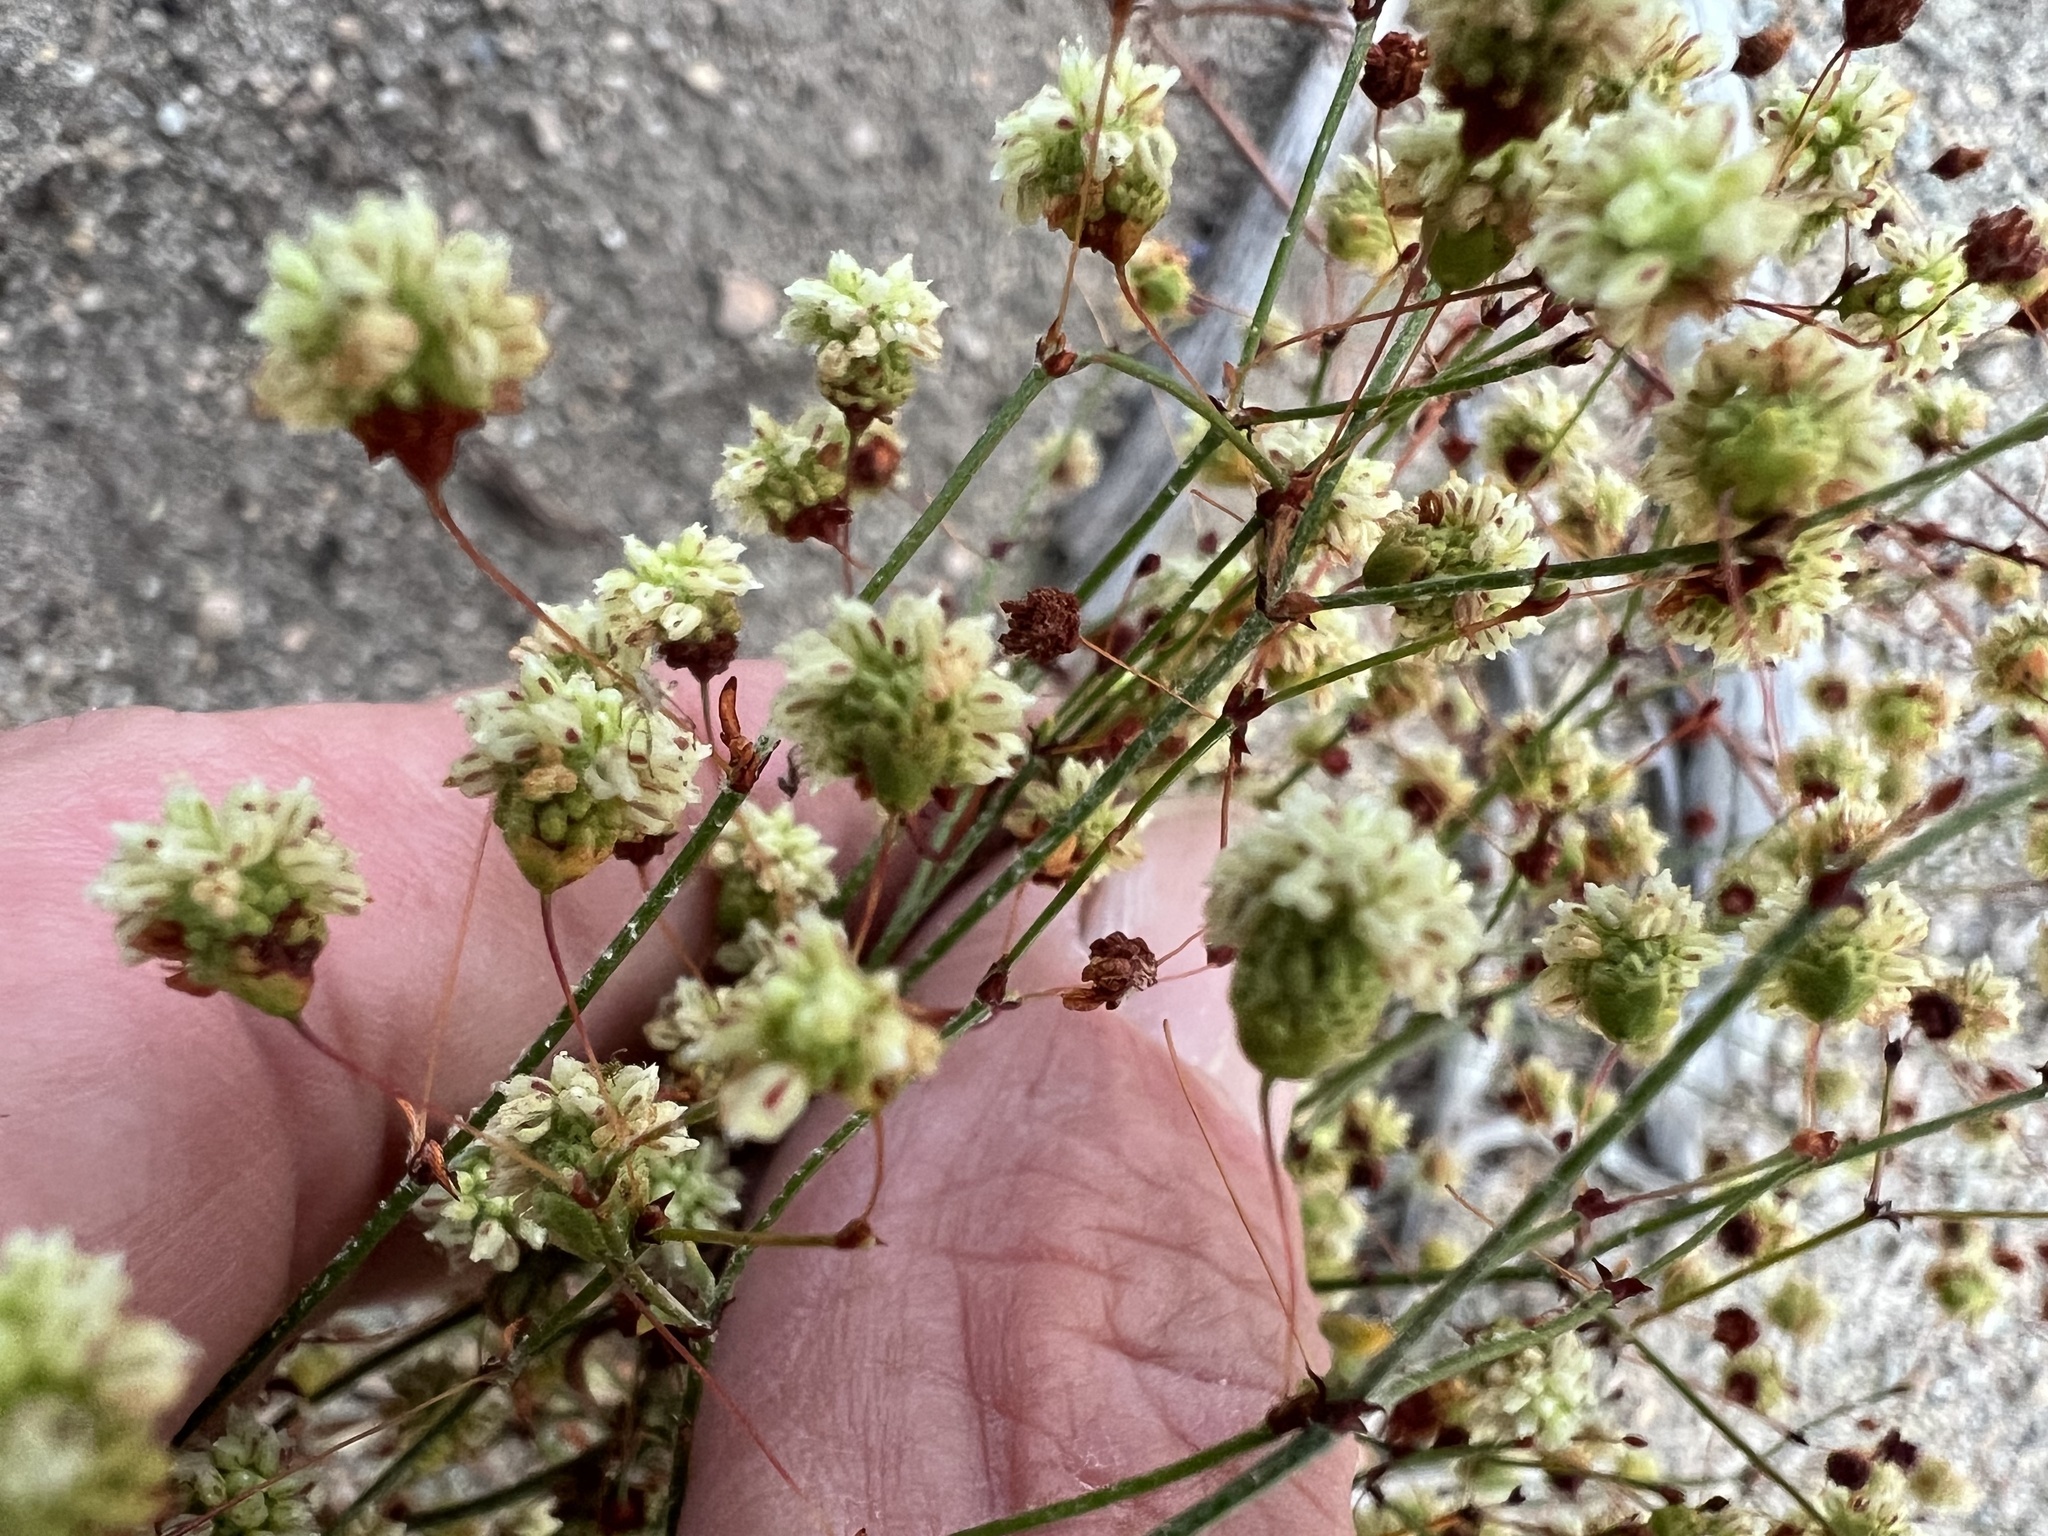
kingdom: Plantae
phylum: Tracheophyta
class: Magnoliopsida
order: Caryophyllales
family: Polygonaceae
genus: Eriogonum
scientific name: Eriogonum maculatum
